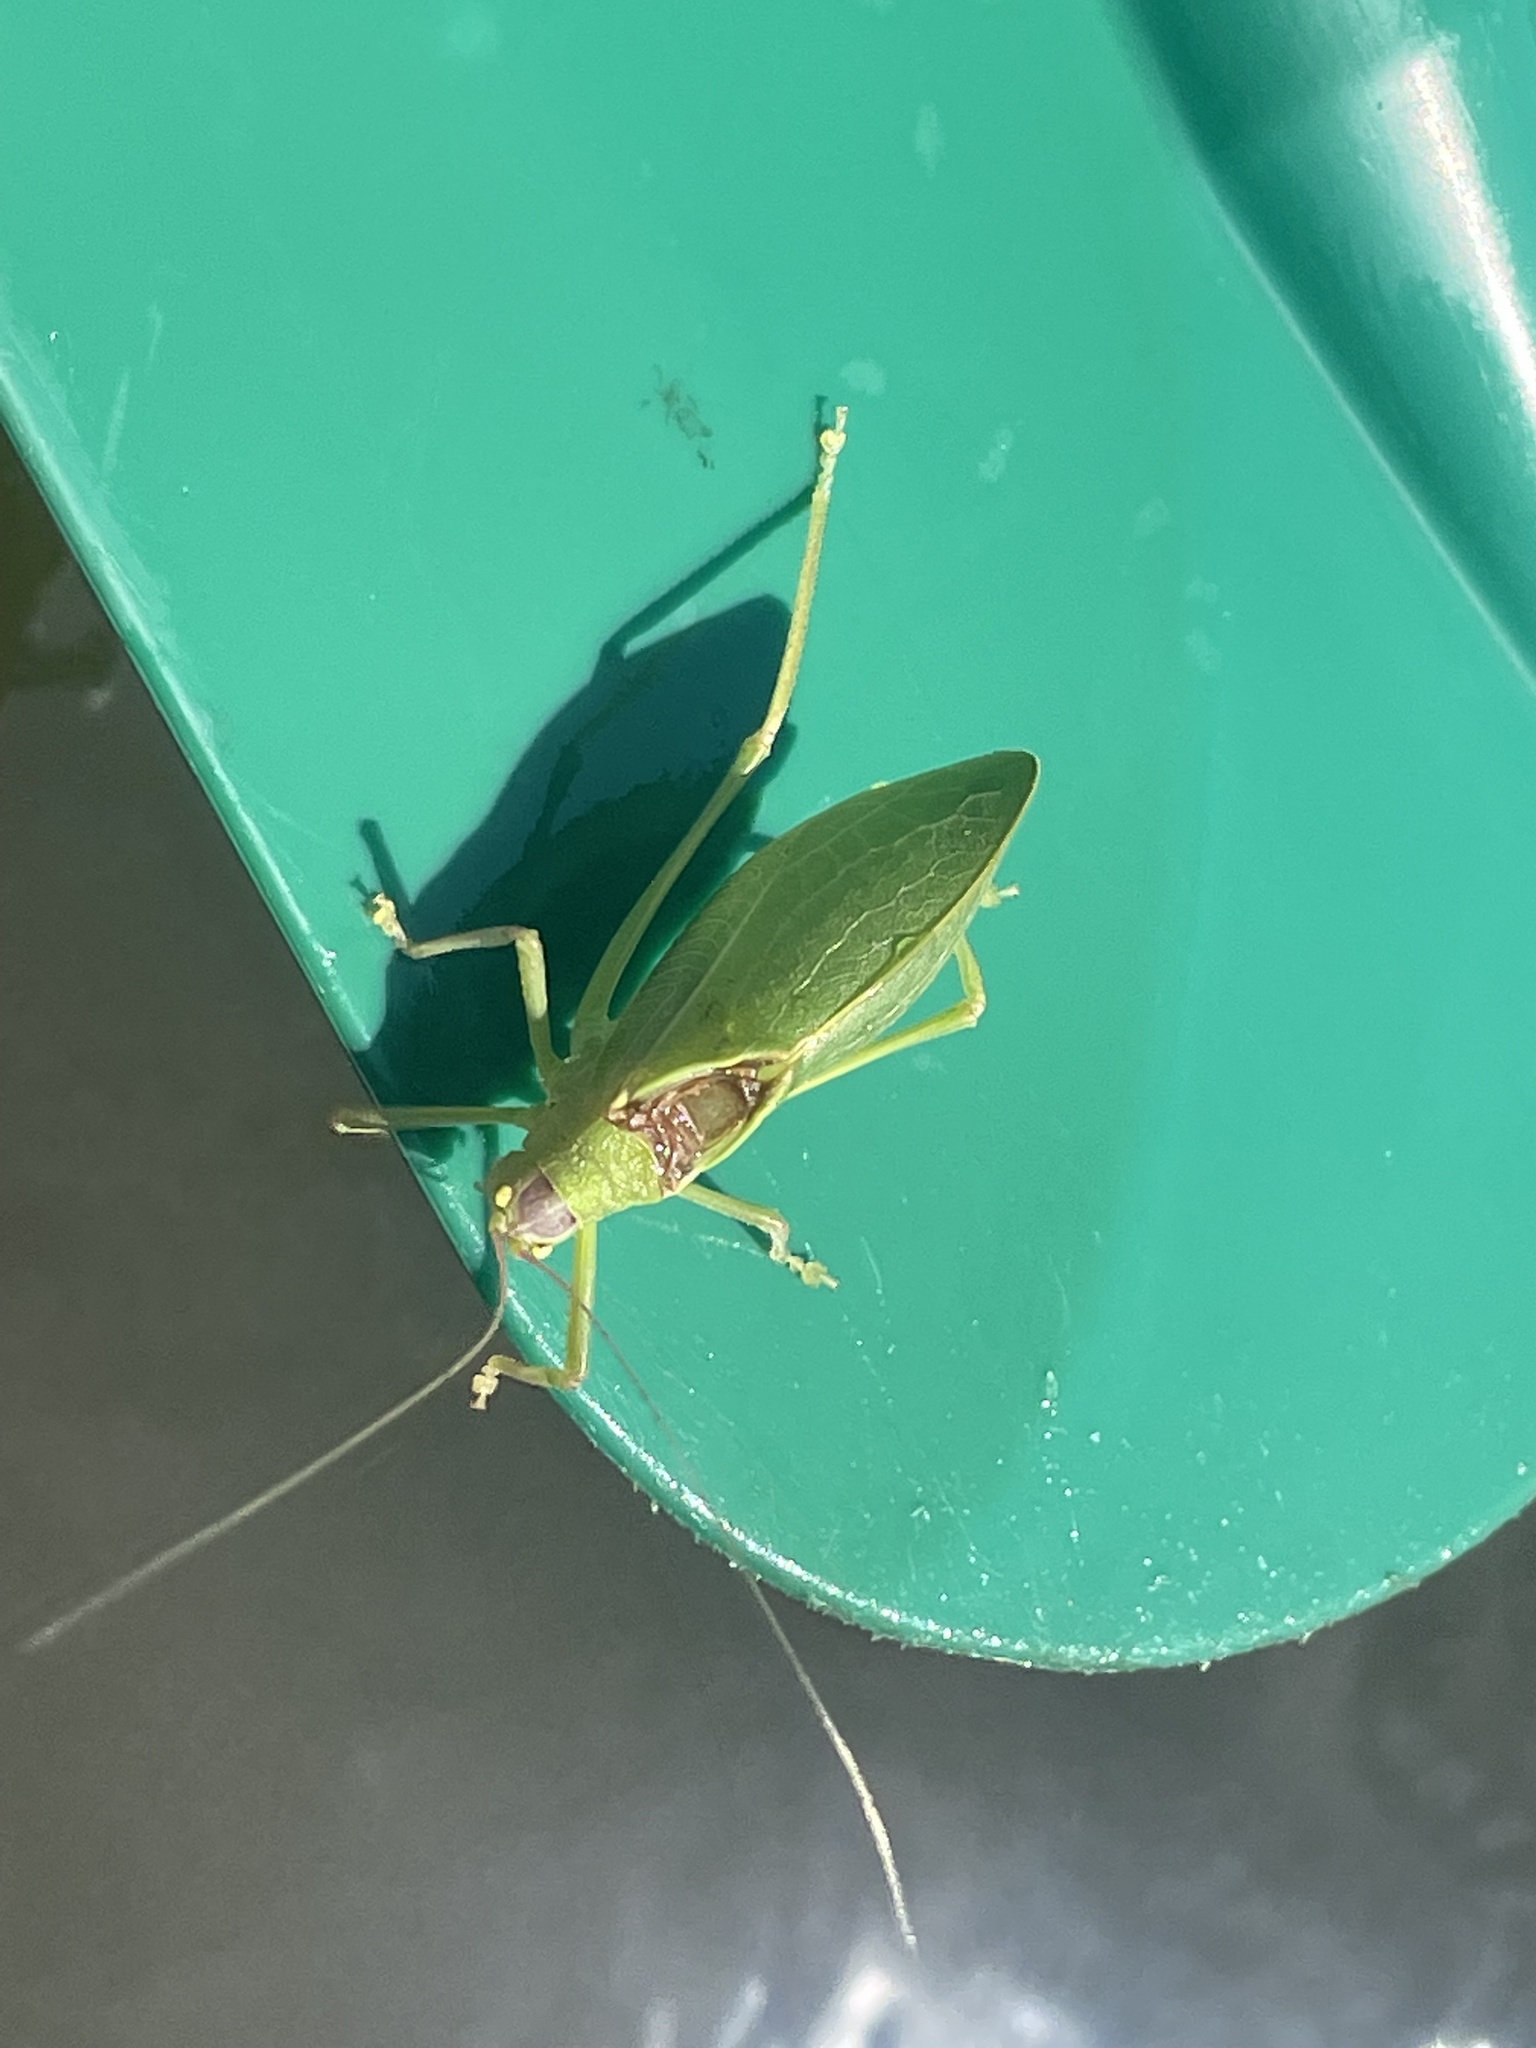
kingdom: Animalia
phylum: Arthropoda
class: Insecta
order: Orthoptera
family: Tettigoniidae
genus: Pterophylla
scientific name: Pterophylla camellifolia
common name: Common true katydid
